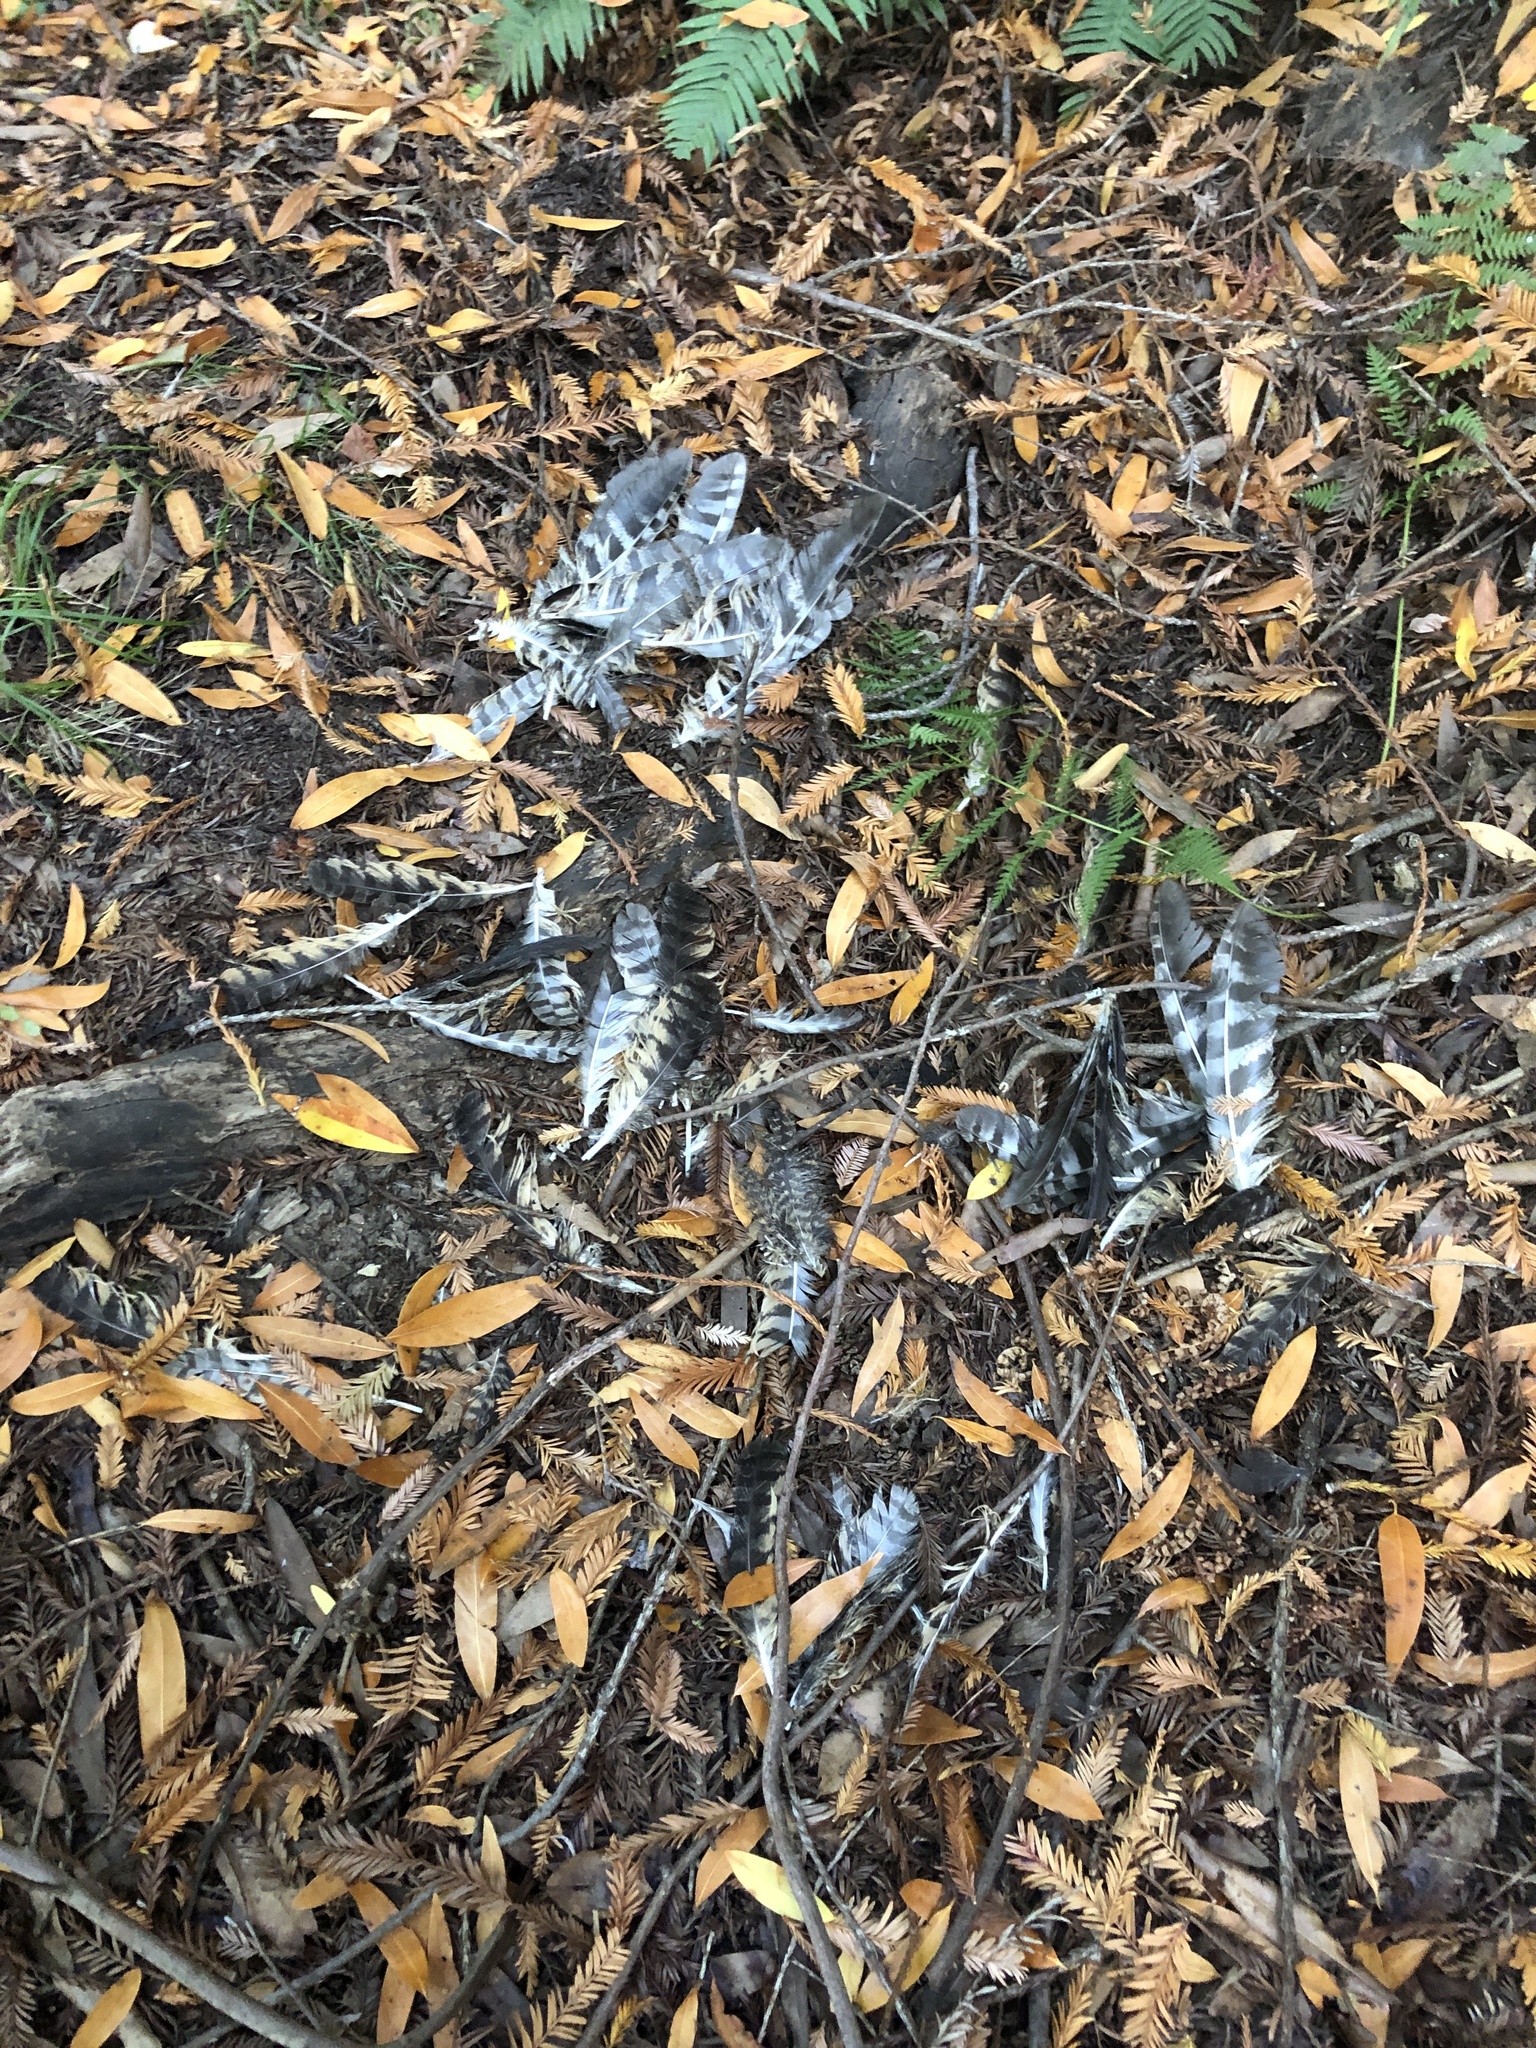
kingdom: Animalia
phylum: Chordata
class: Aves
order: Strigiformes
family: Strigidae
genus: Bubo
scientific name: Bubo virginianus
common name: Great horned owl
